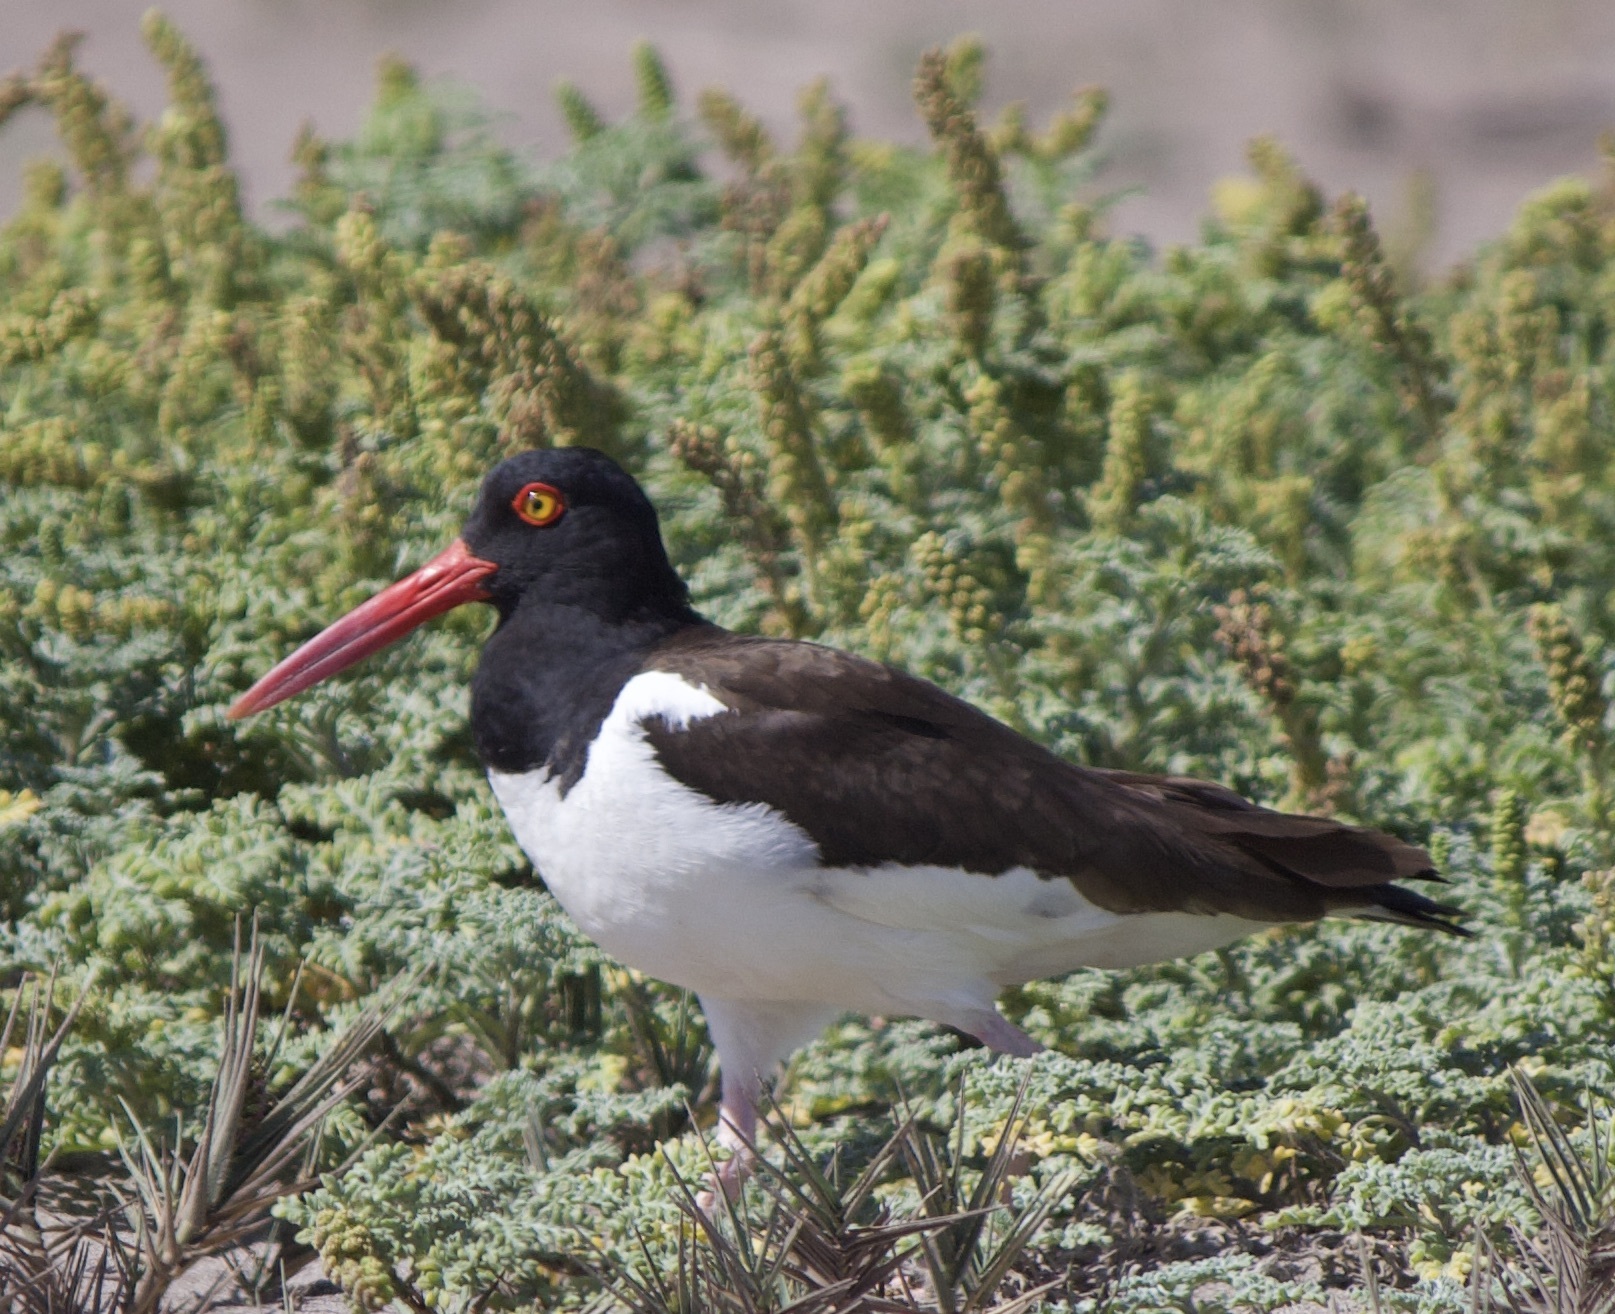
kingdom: Animalia
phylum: Chordata
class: Aves
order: Charadriiformes
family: Haematopodidae
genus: Haematopus
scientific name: Haematopus palliatus
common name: American oystercatcher
